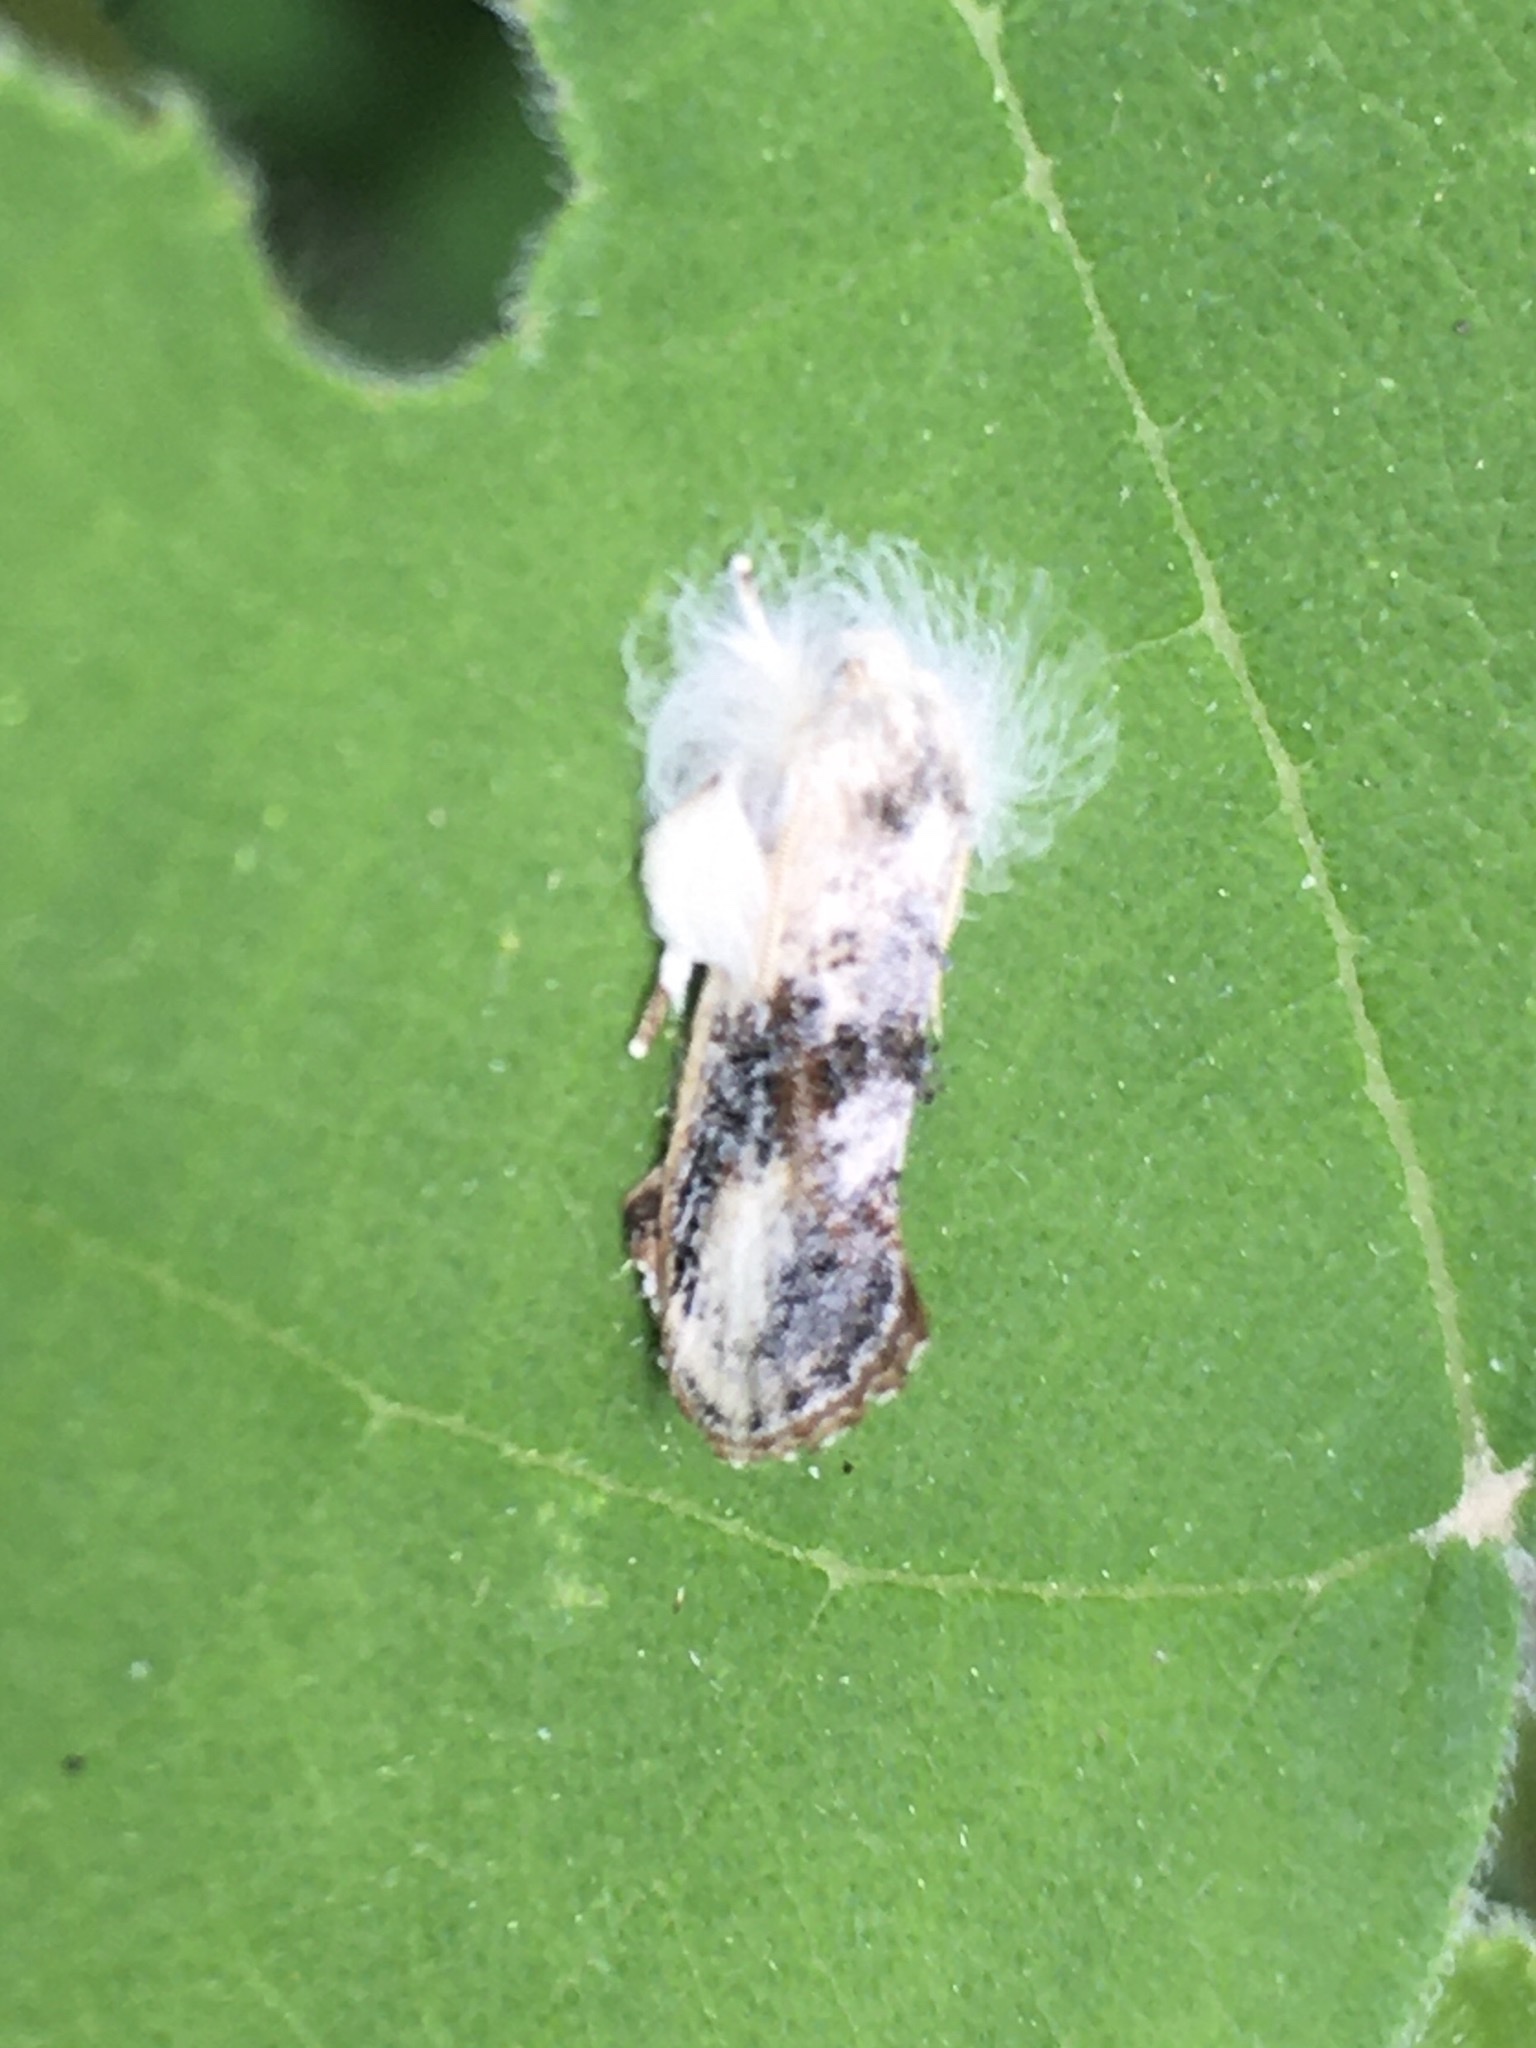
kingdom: Animalia
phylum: Arthropoda
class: Insecta
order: Lepidoptera
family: Tineidae
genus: Acrolophus
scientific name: Acrolophus mycetophagus
